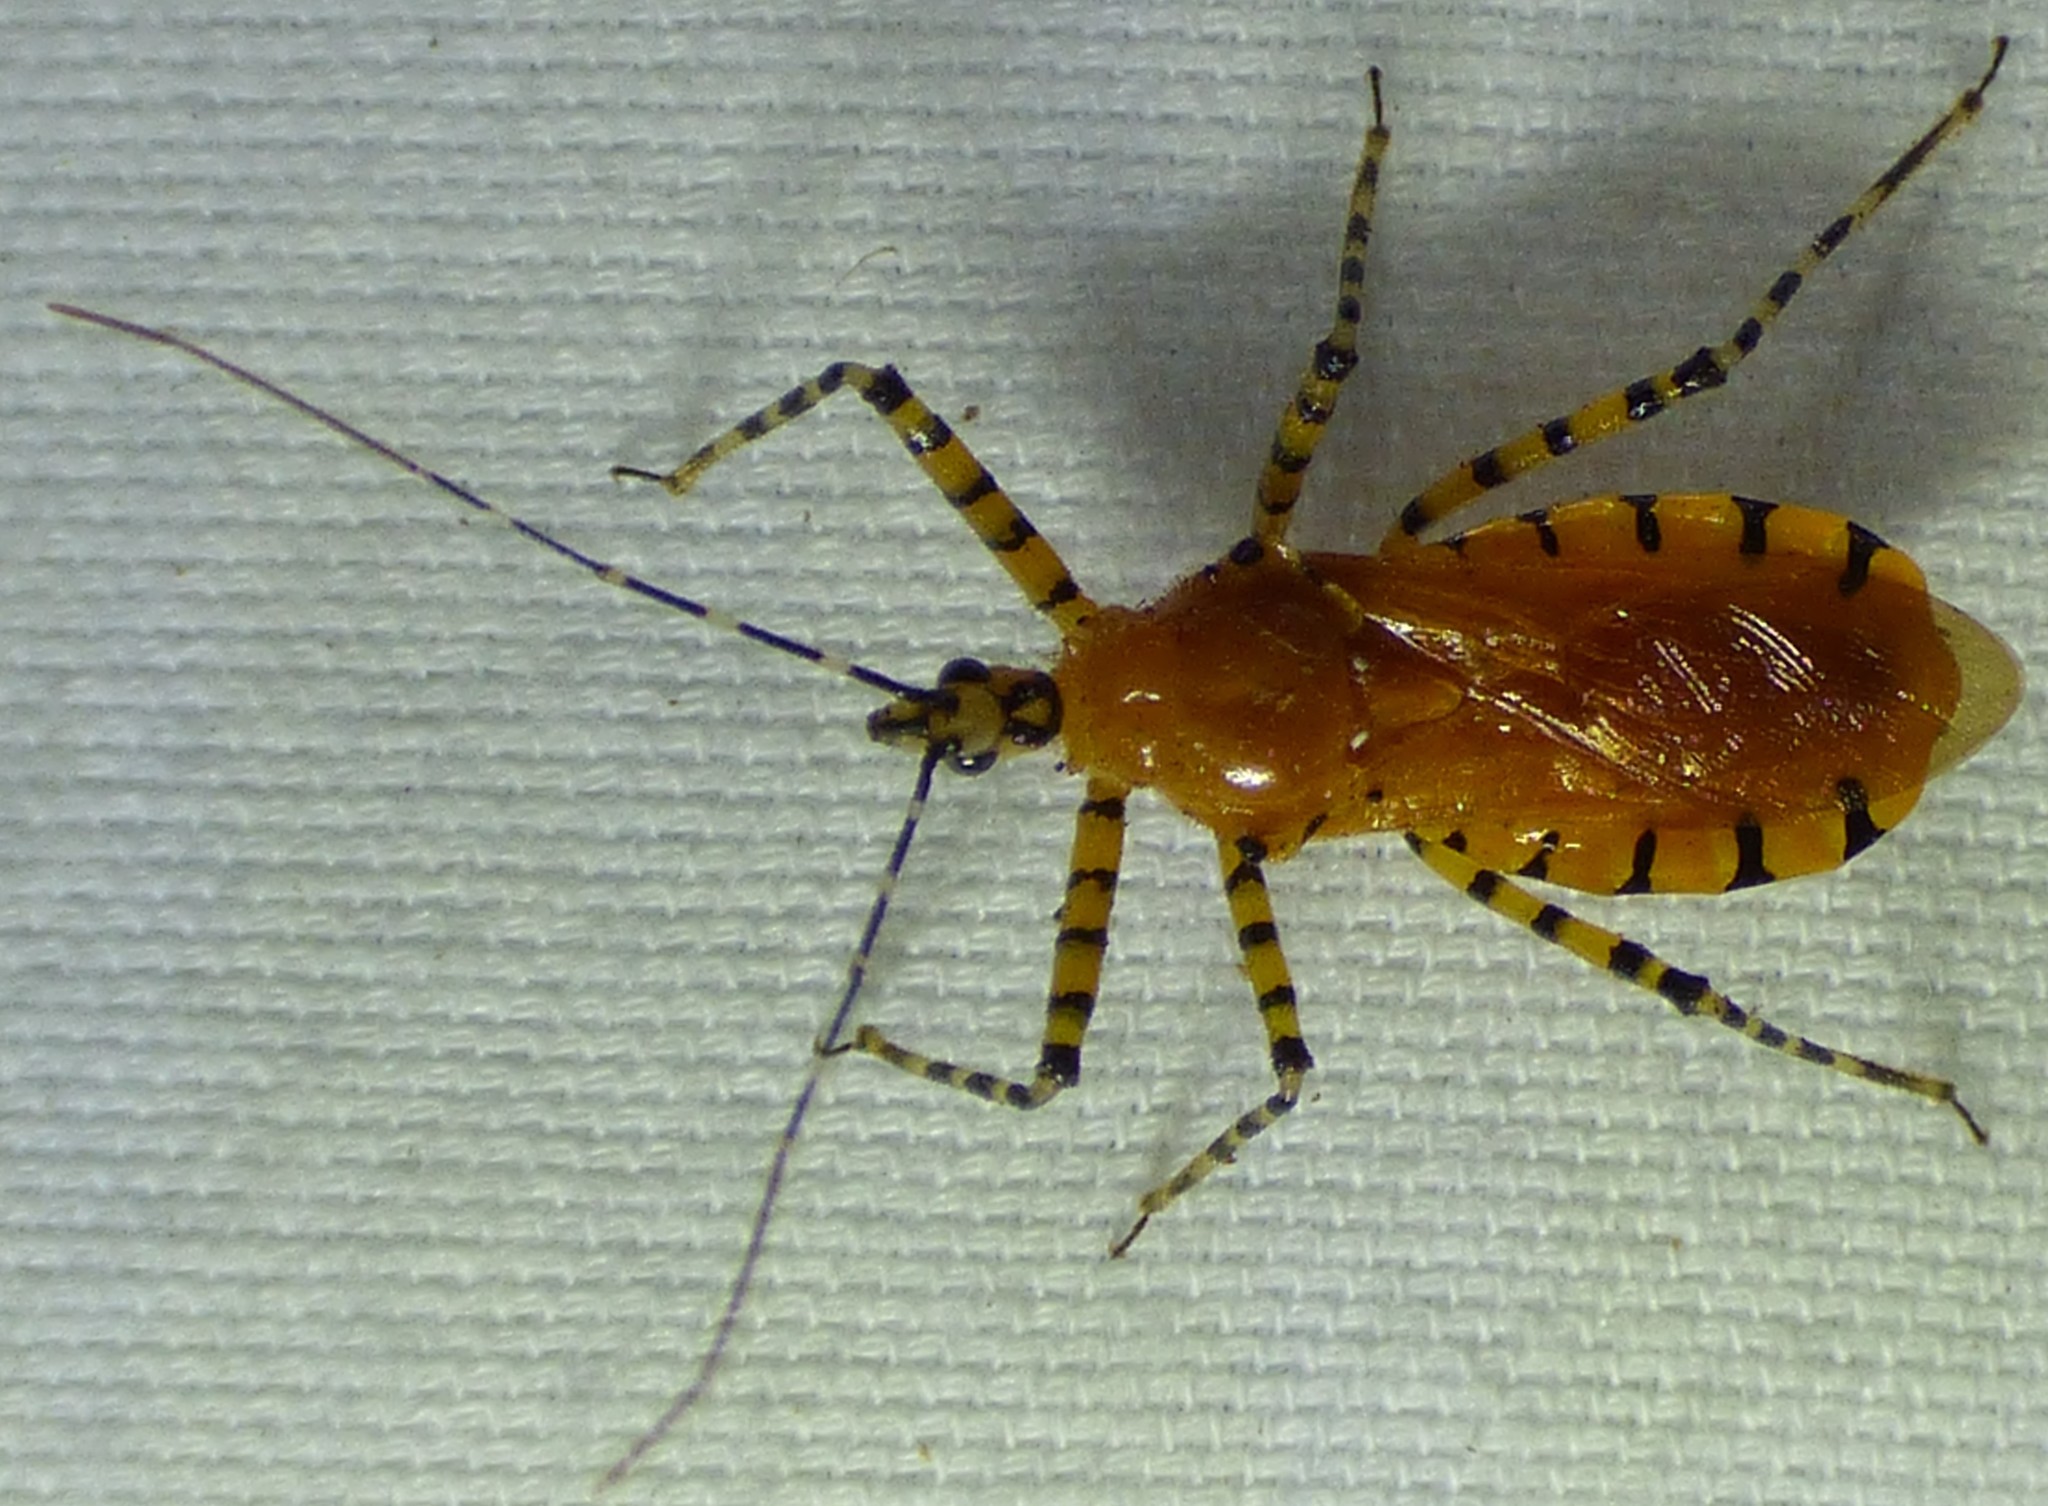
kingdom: Animalia
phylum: Arthropoda
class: Insecta
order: Hemiptera
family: Reduviidae
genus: Pselliopus
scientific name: Pselliopus barberi
